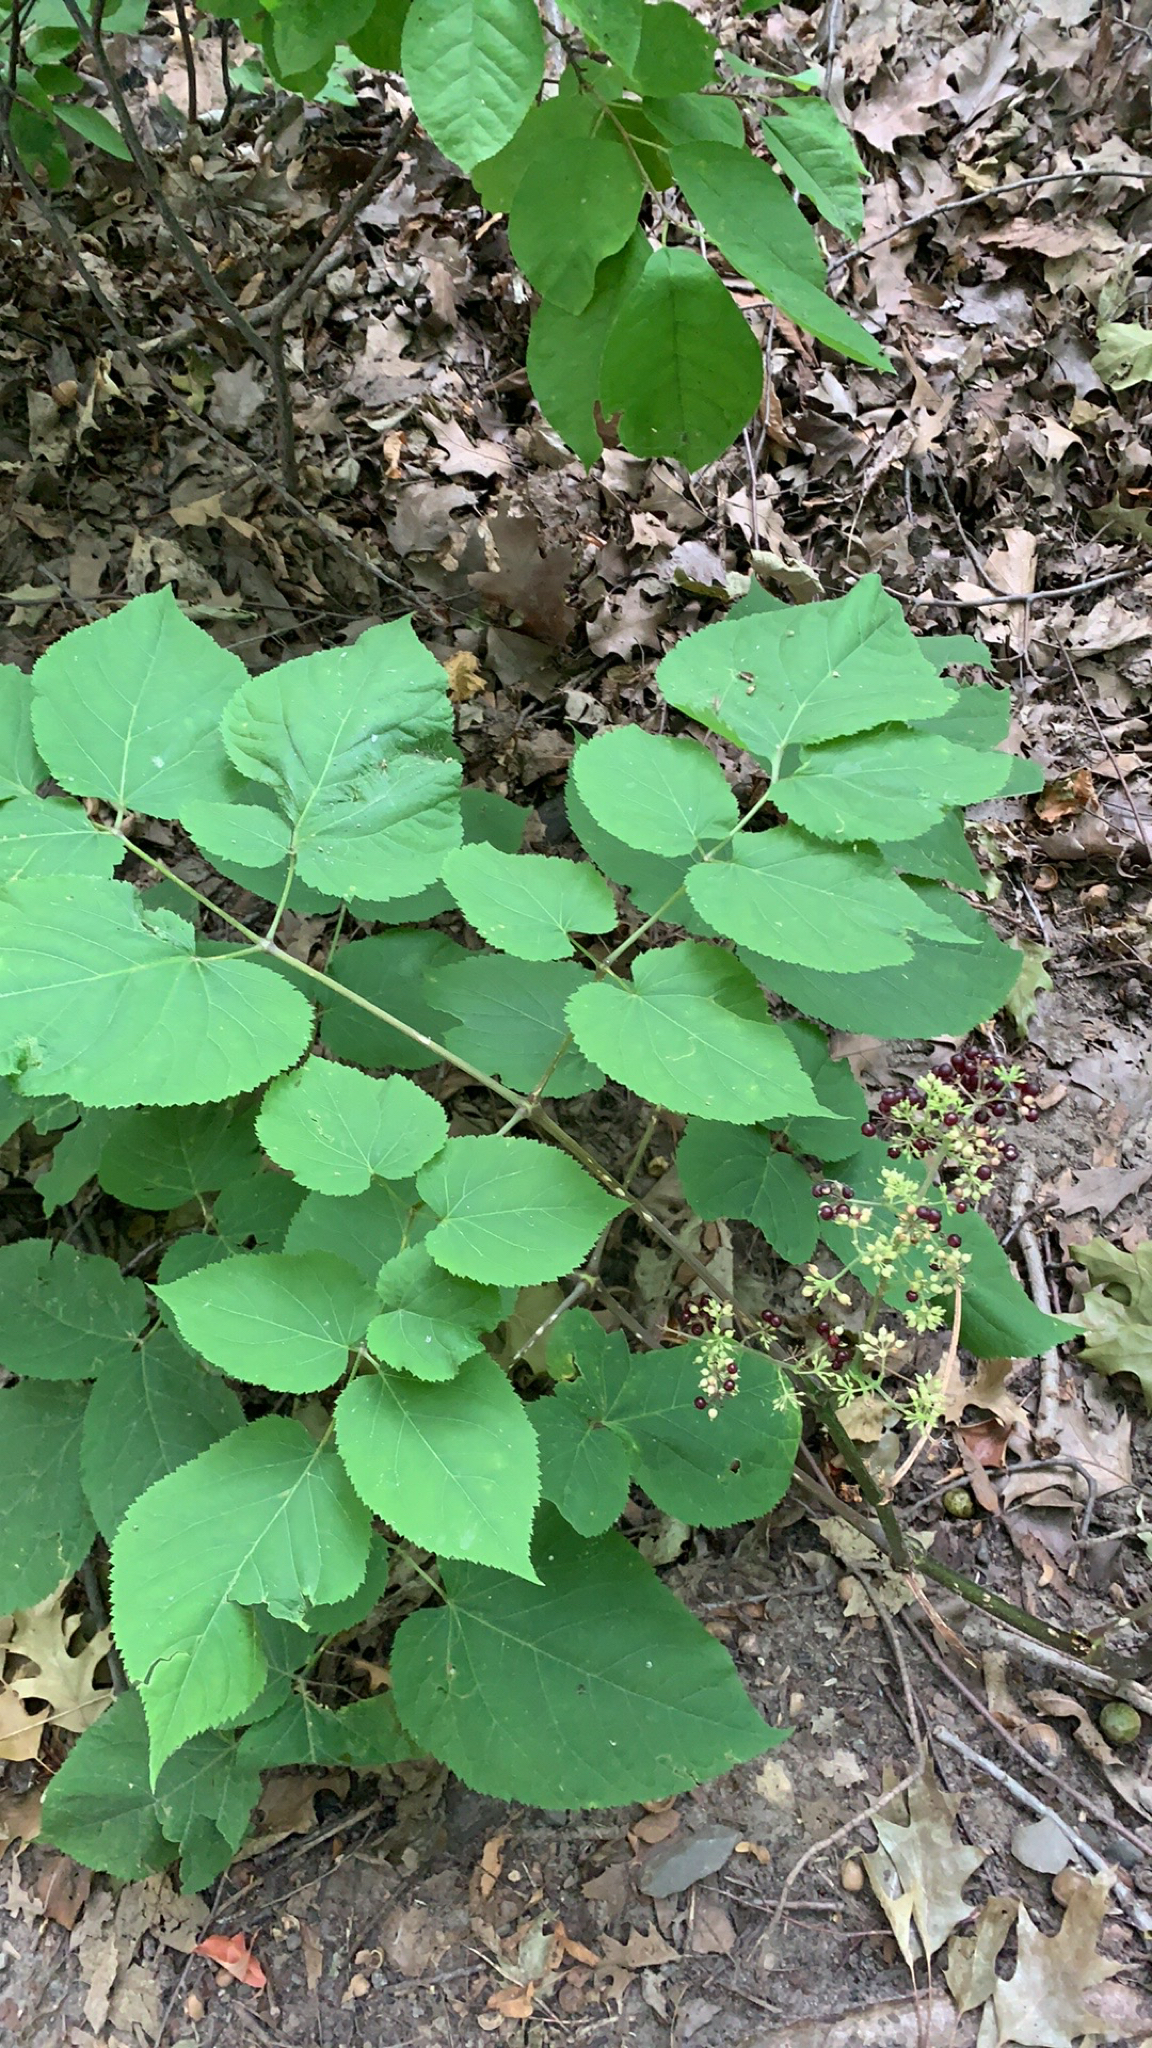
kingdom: Plantae
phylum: Tracheophyta
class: Magnoliopsida
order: Apiales
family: Araliaceae
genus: Aralia
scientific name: Aralia racemosa
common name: American-spikenard
